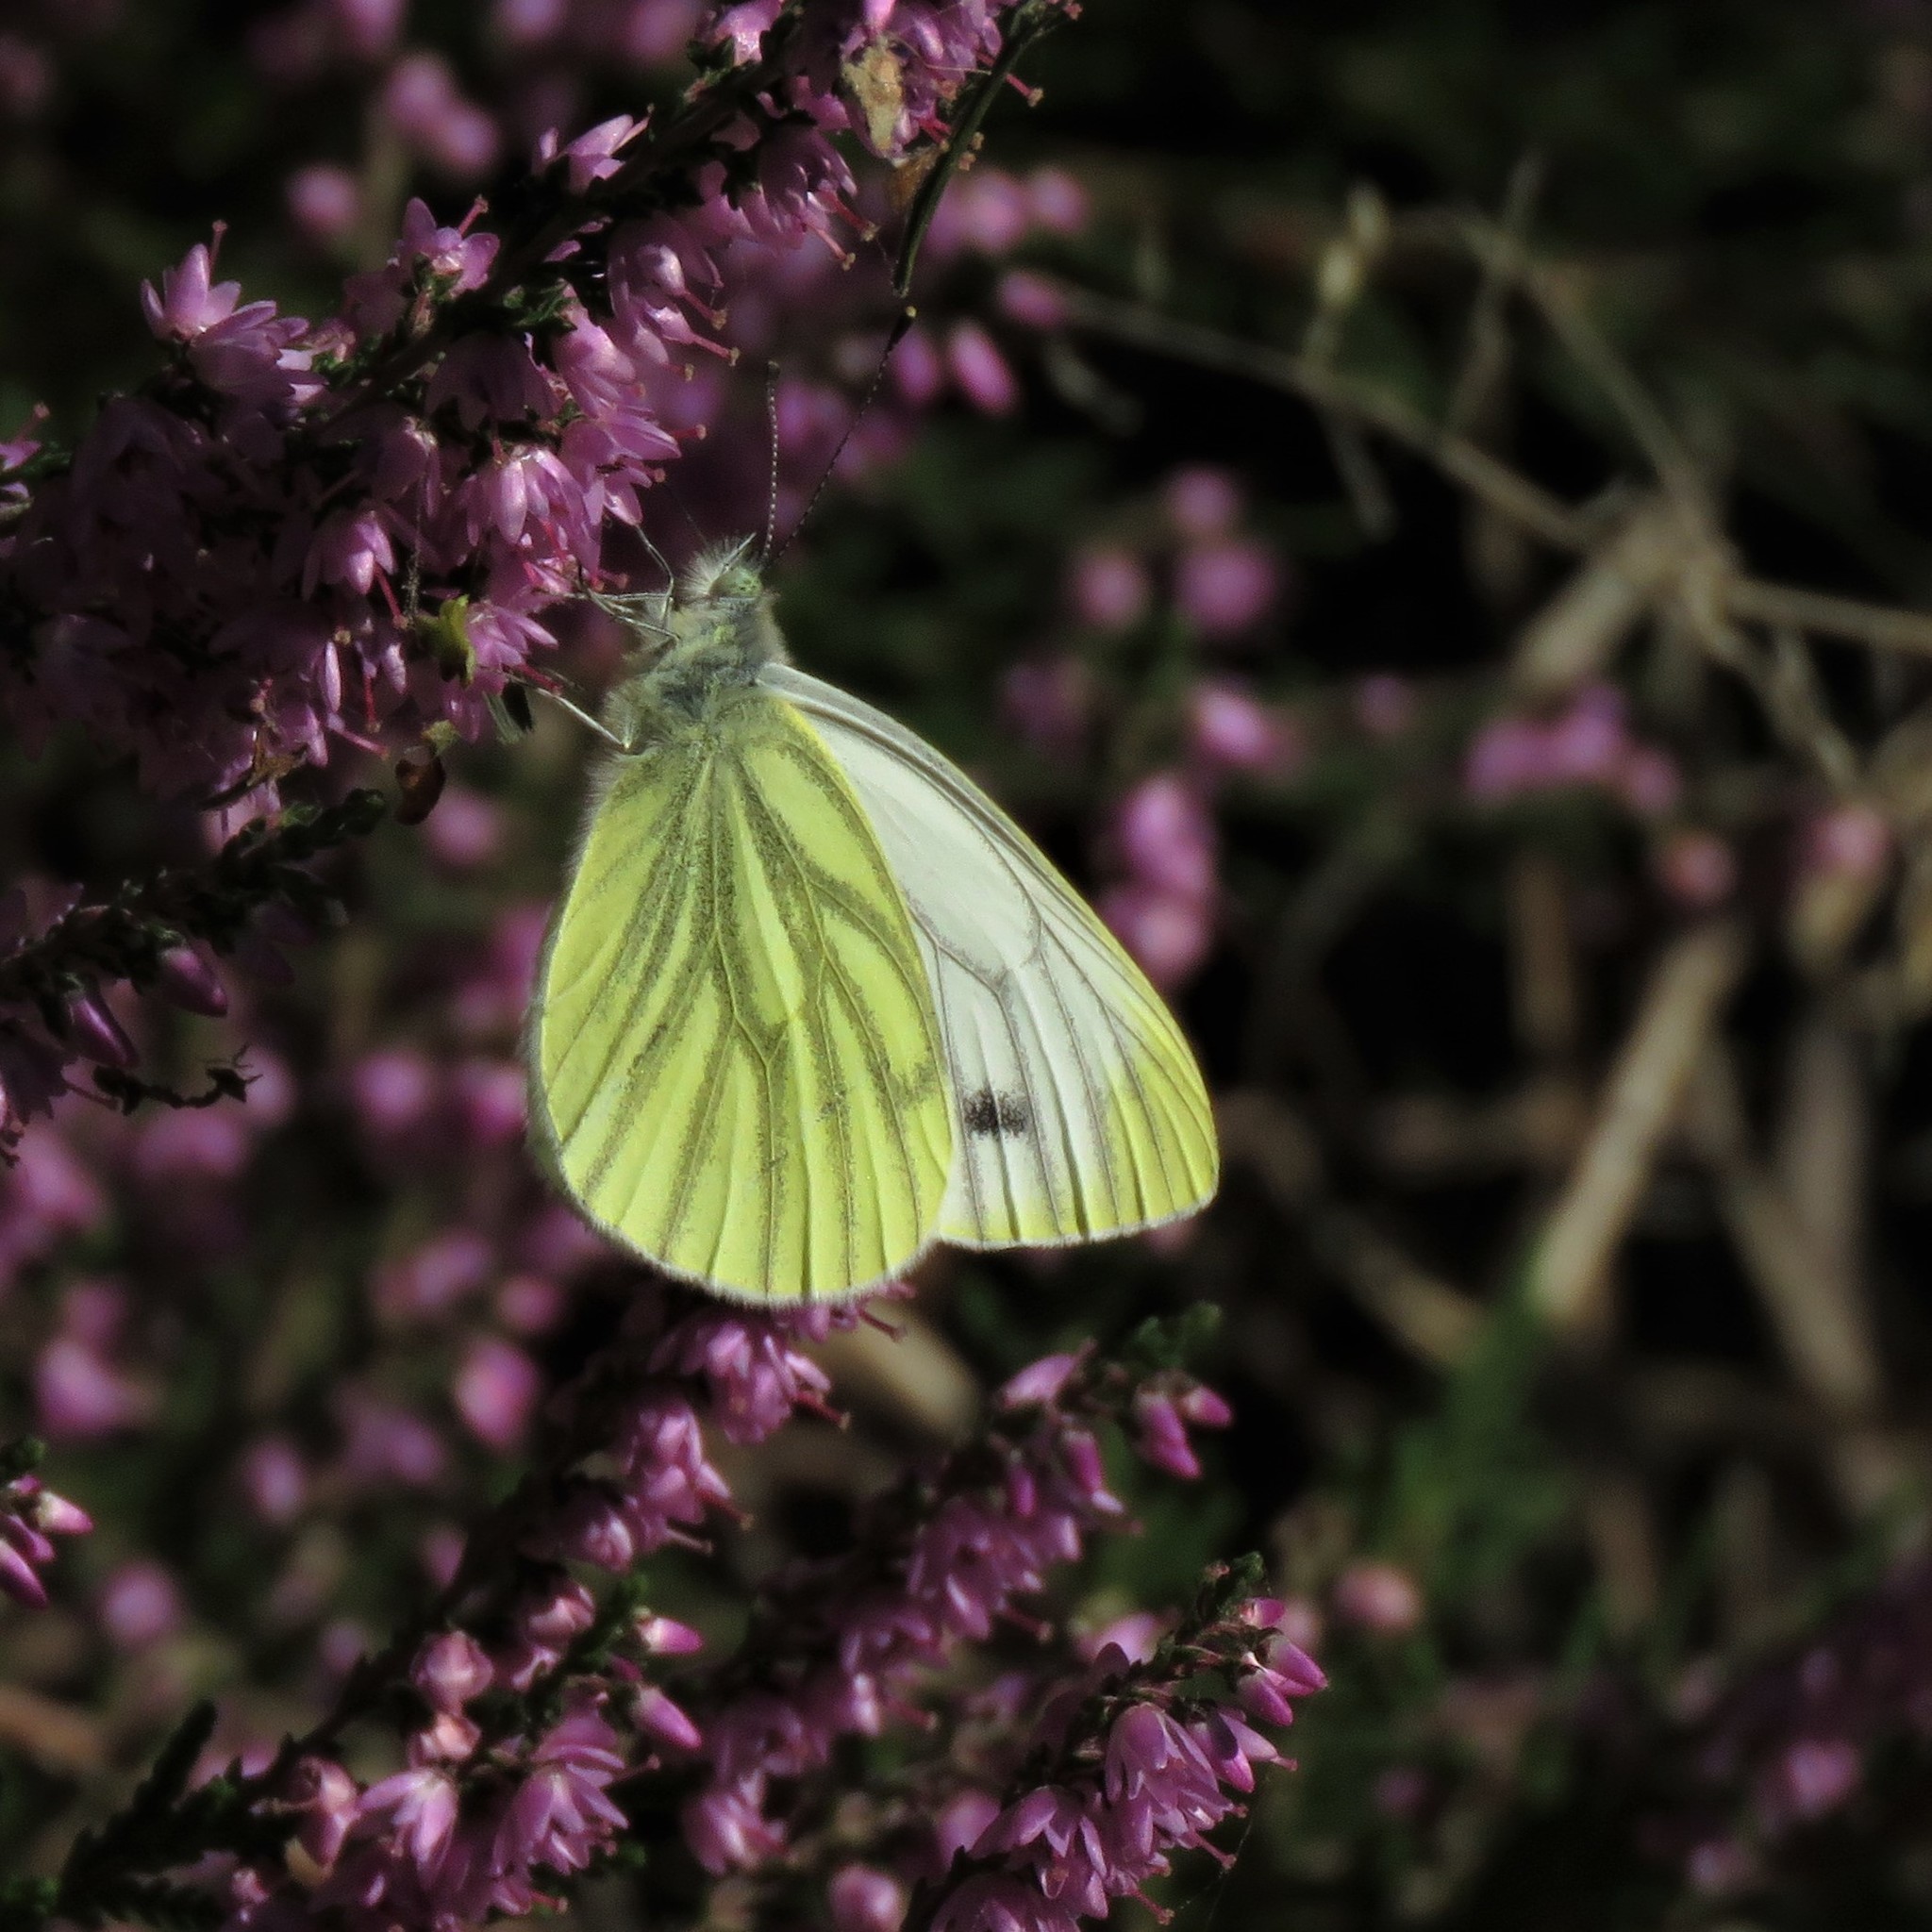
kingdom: Animalia
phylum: Arthropoda
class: Insecta
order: Lepidoptera
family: Pieridae
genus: Pieris
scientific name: Pieris napi
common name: Green-veined white
